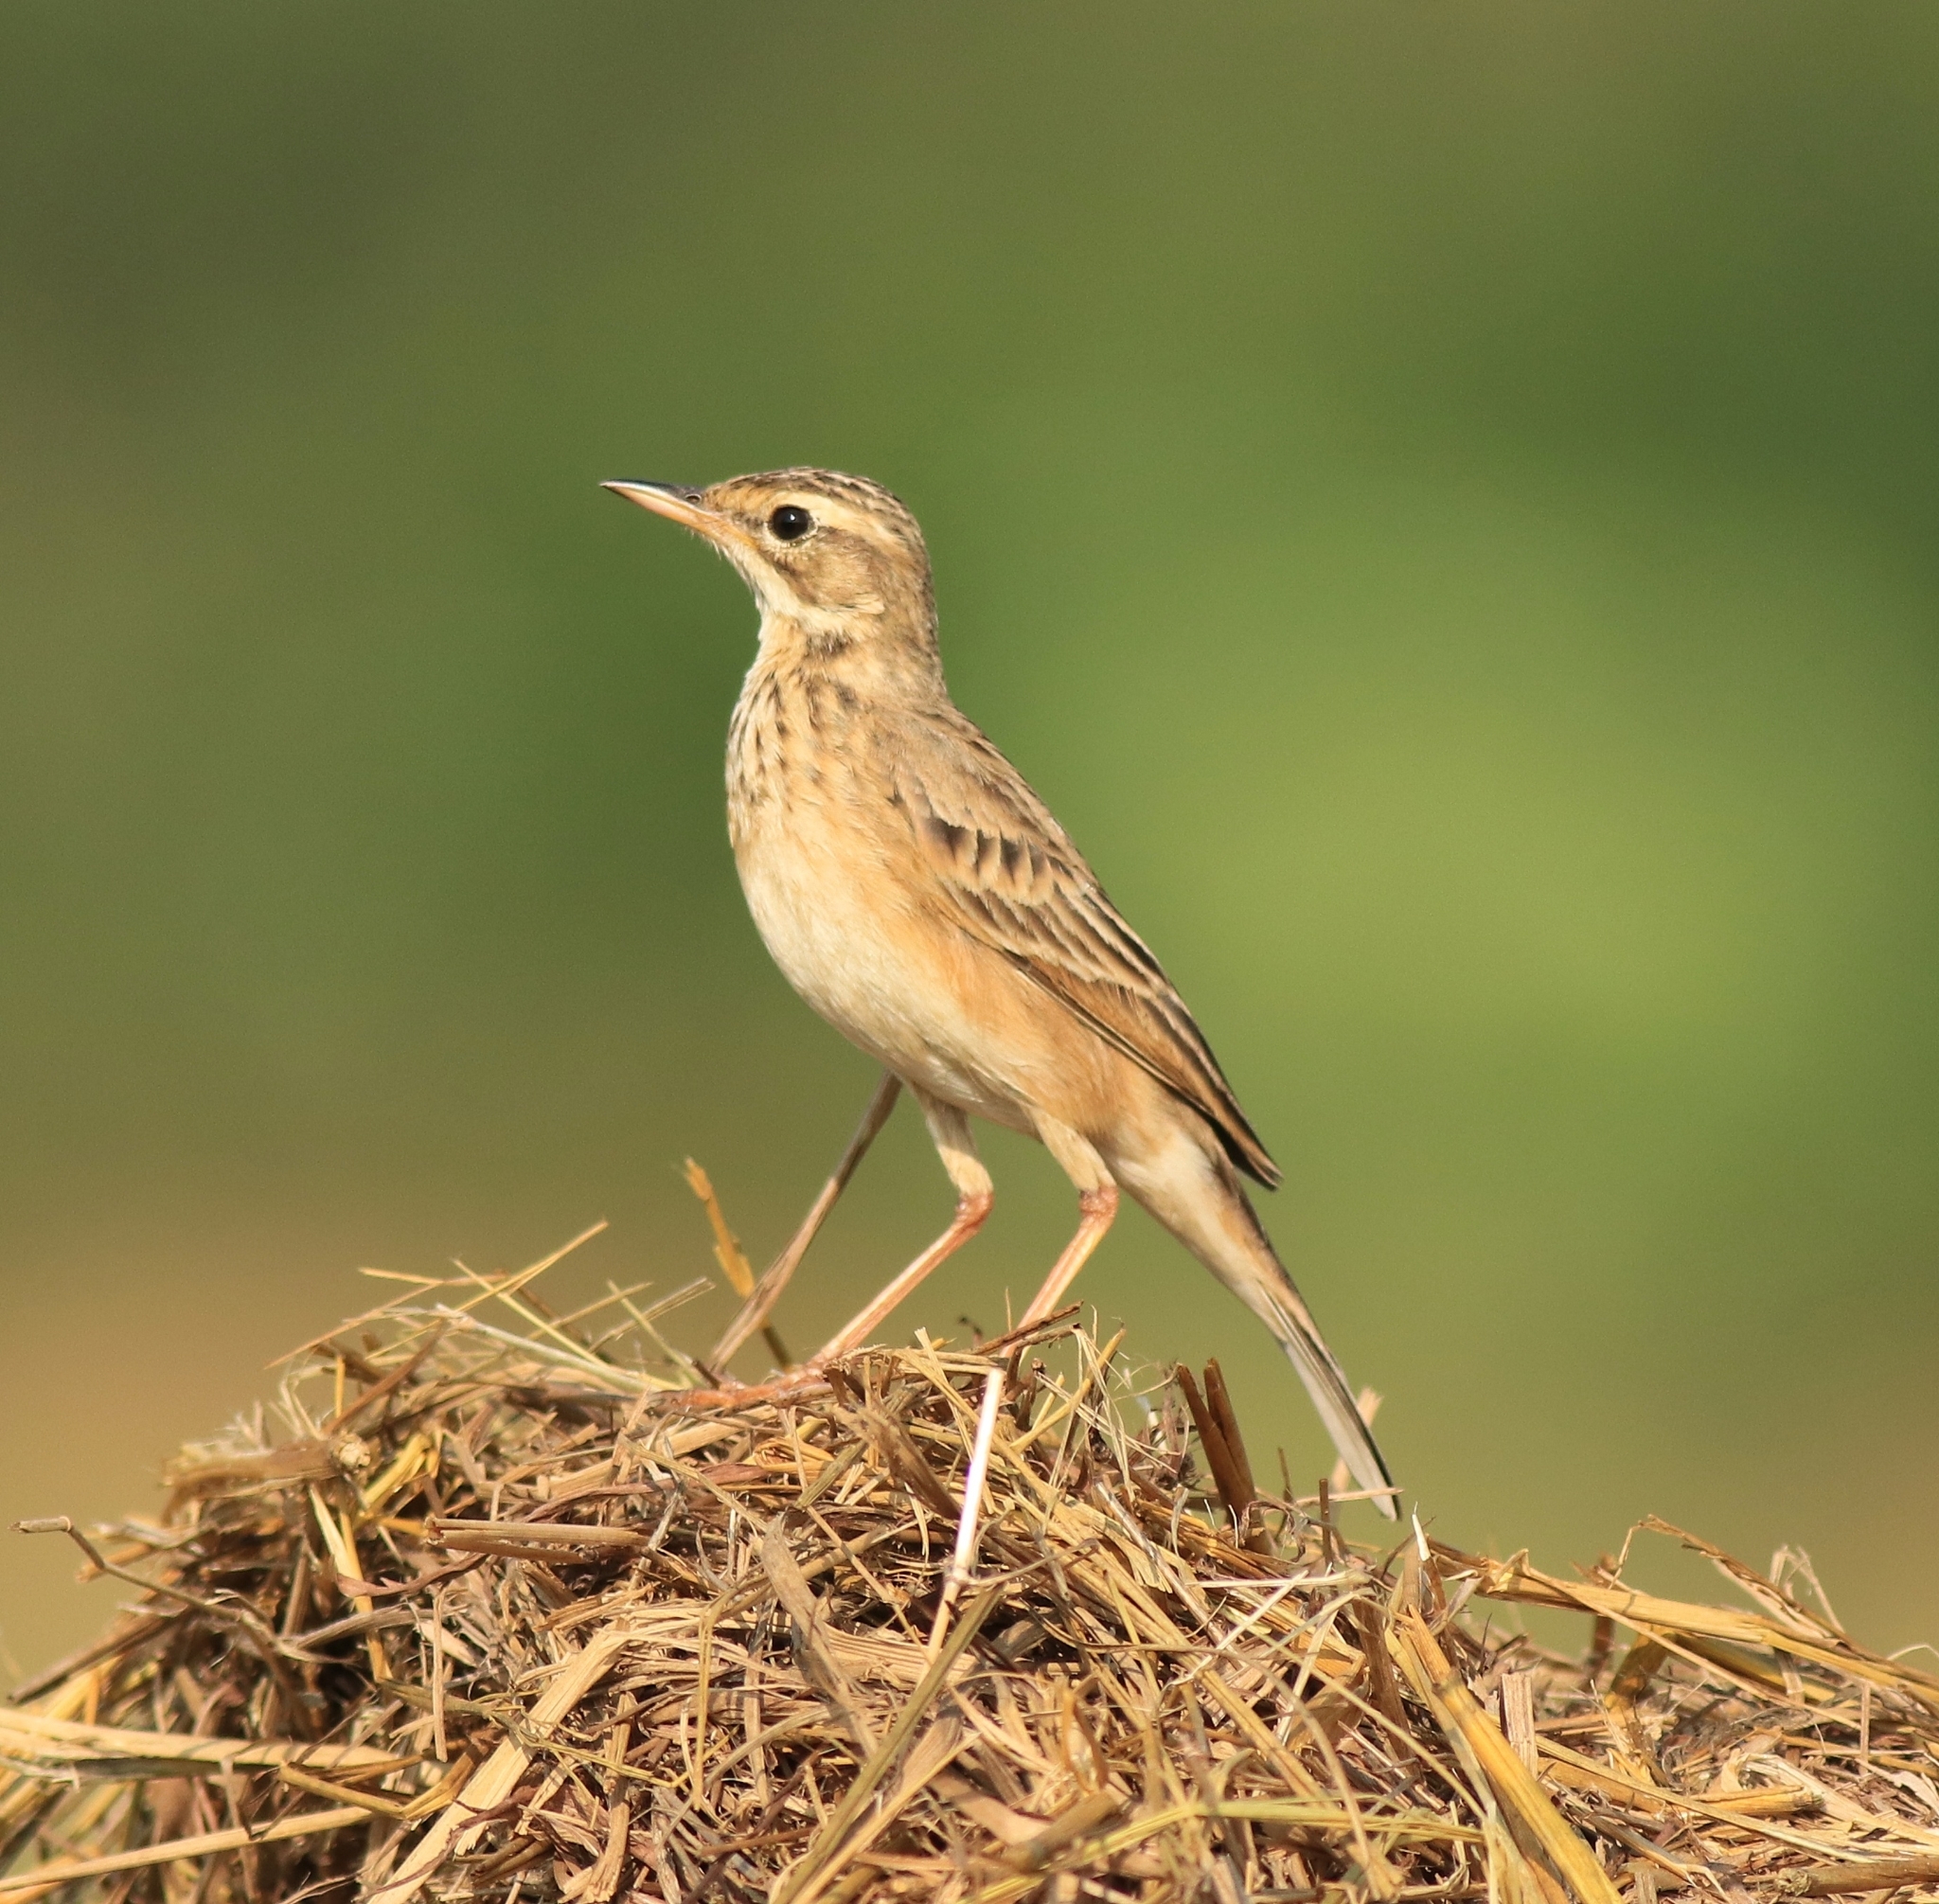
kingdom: Animalia
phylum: Chordata
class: Aves
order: Passeriformes
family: Motacillidae
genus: Anthus
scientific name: Anthus rufulus
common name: Paddyfield pipit
